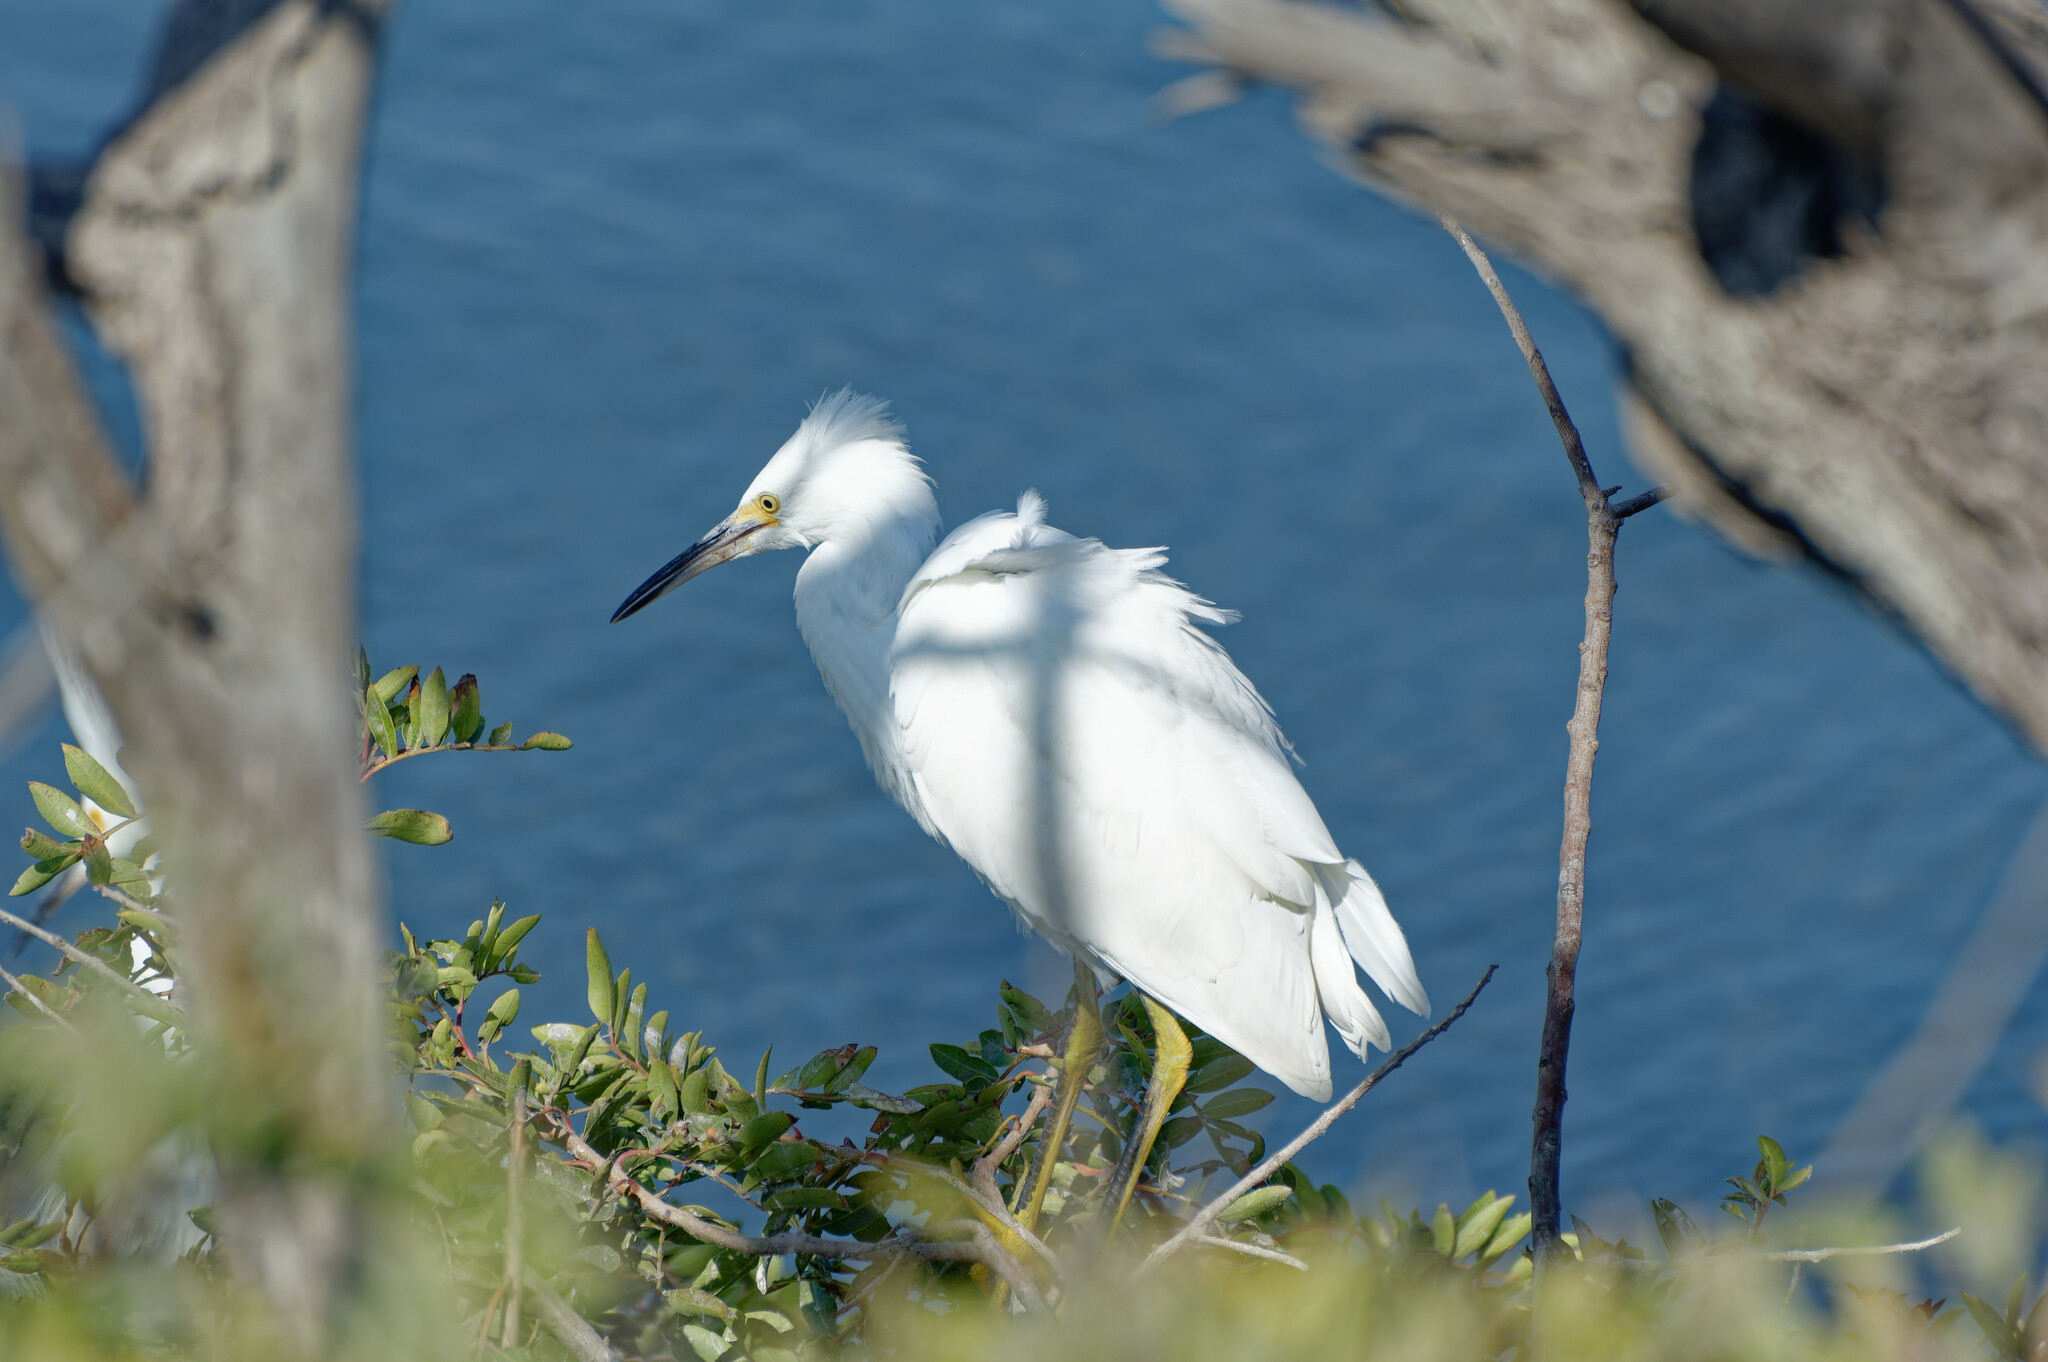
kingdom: Animalia
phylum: Chordata
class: Aves
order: Pelecaniformes
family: Ardeidae
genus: Egretta
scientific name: Egretta thula
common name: Snowy egret
